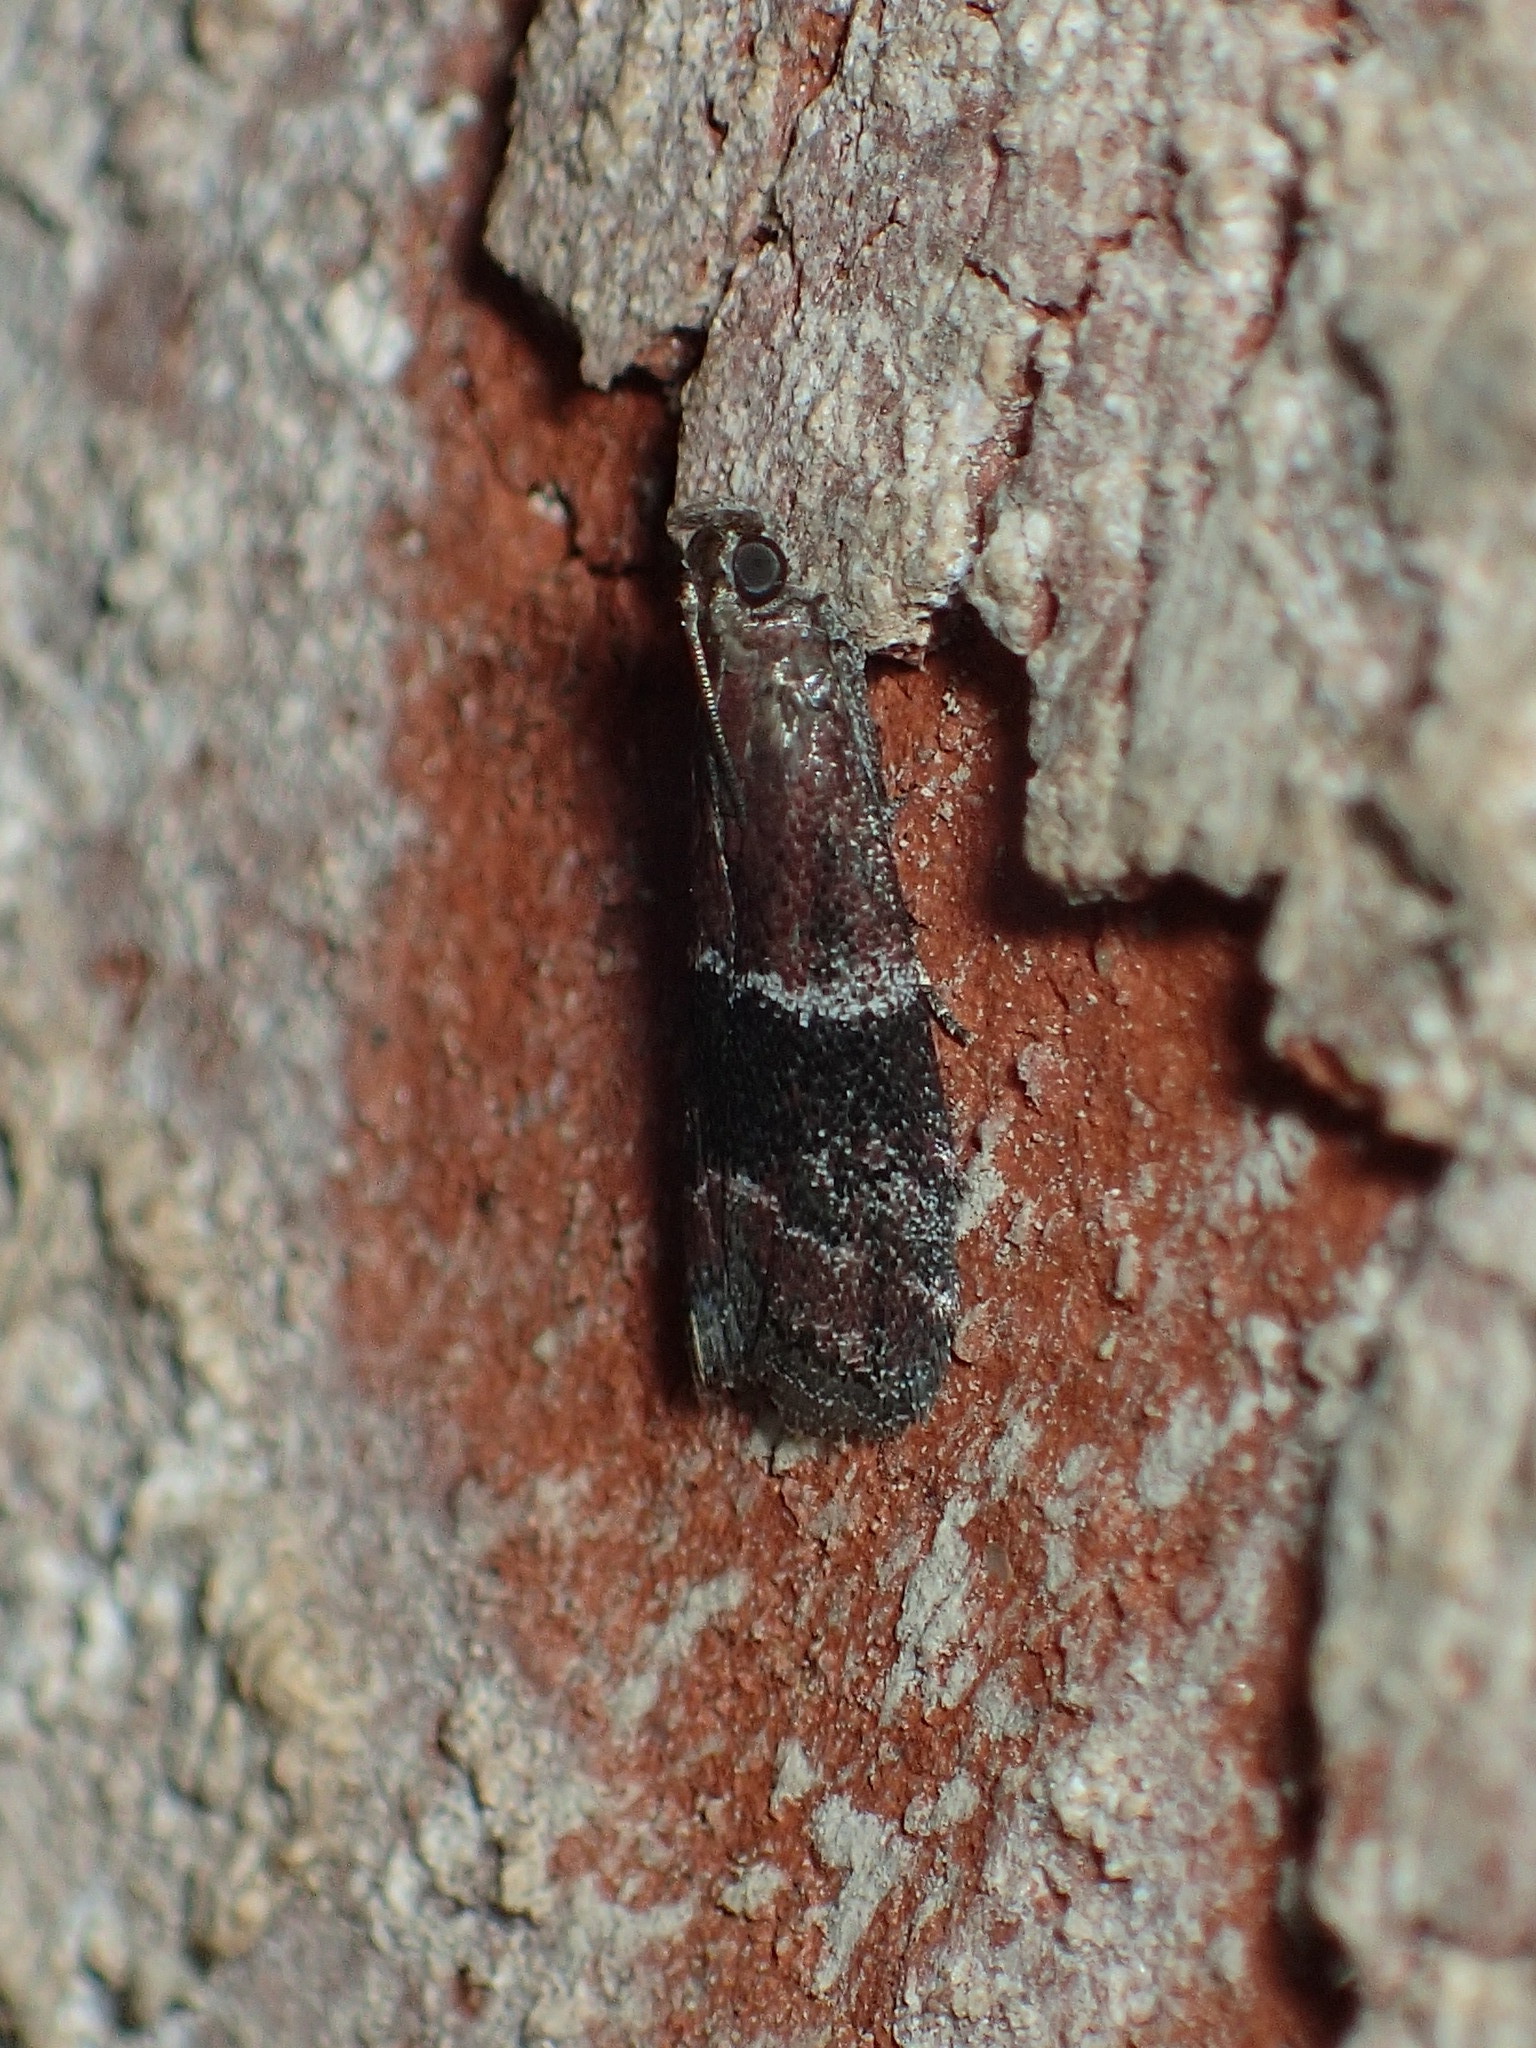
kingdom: Animalia
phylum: Arthropoda
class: Insecta
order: Lepidoptera
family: Pyralidae
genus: Moodna
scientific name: Moodna ostrinella
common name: Darker moodna moth
